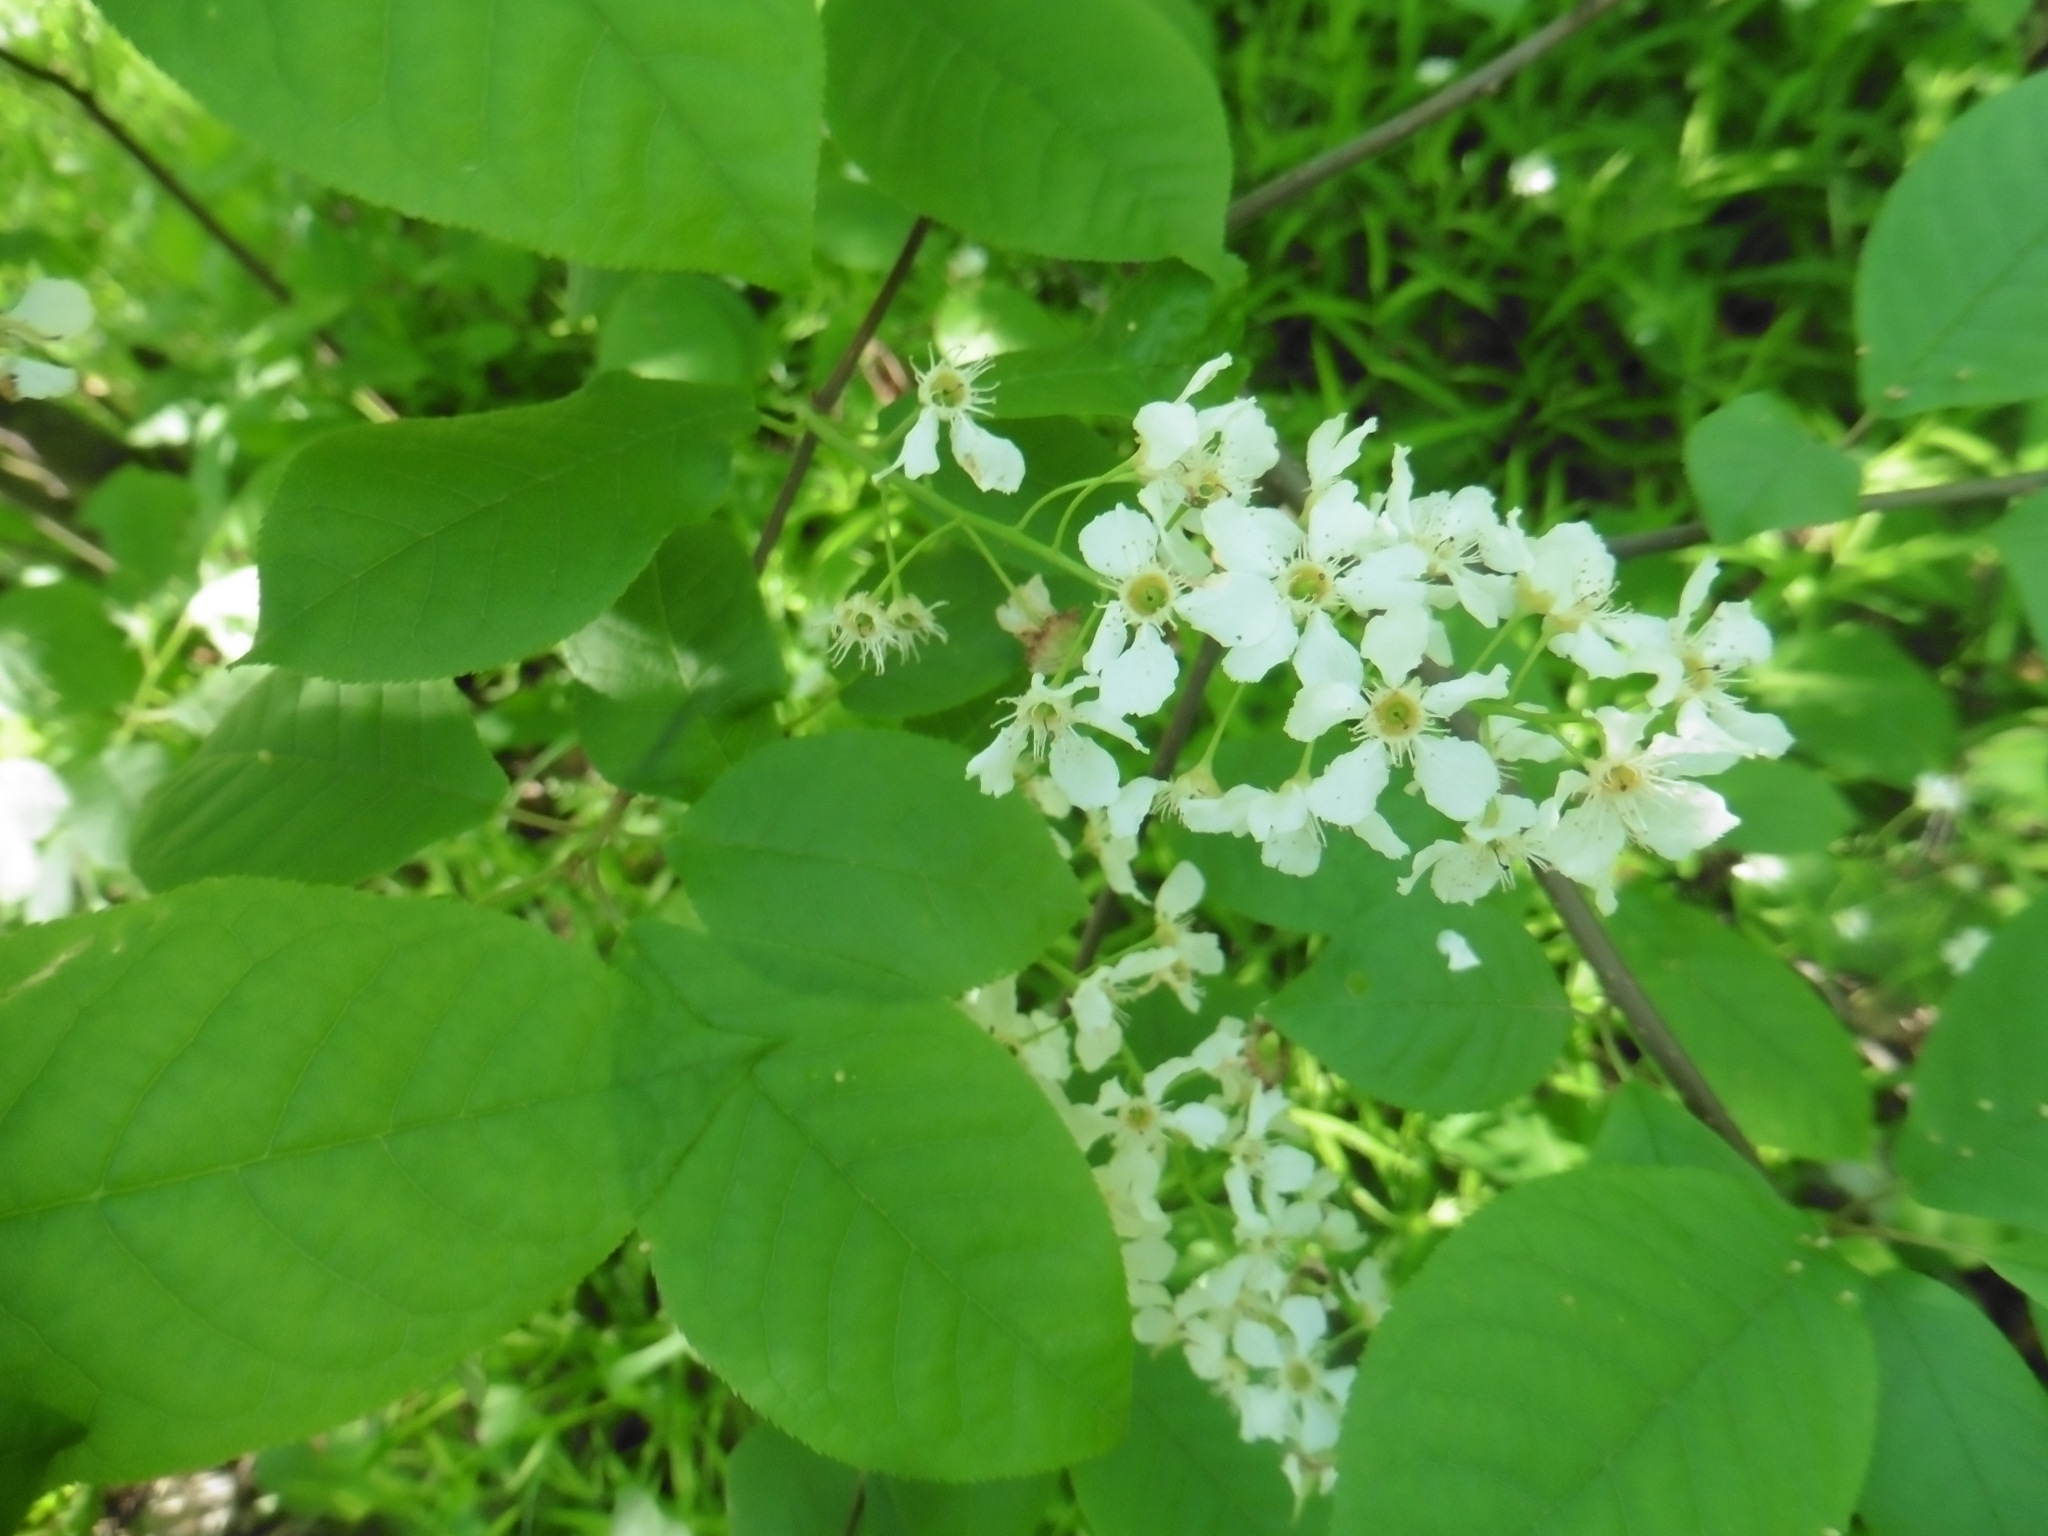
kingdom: Plantae
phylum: Tracheophyta
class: Magnoliopsida
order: Rosales
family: Rosaceae
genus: Prunus
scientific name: Prunus padus
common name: Bird cherry
